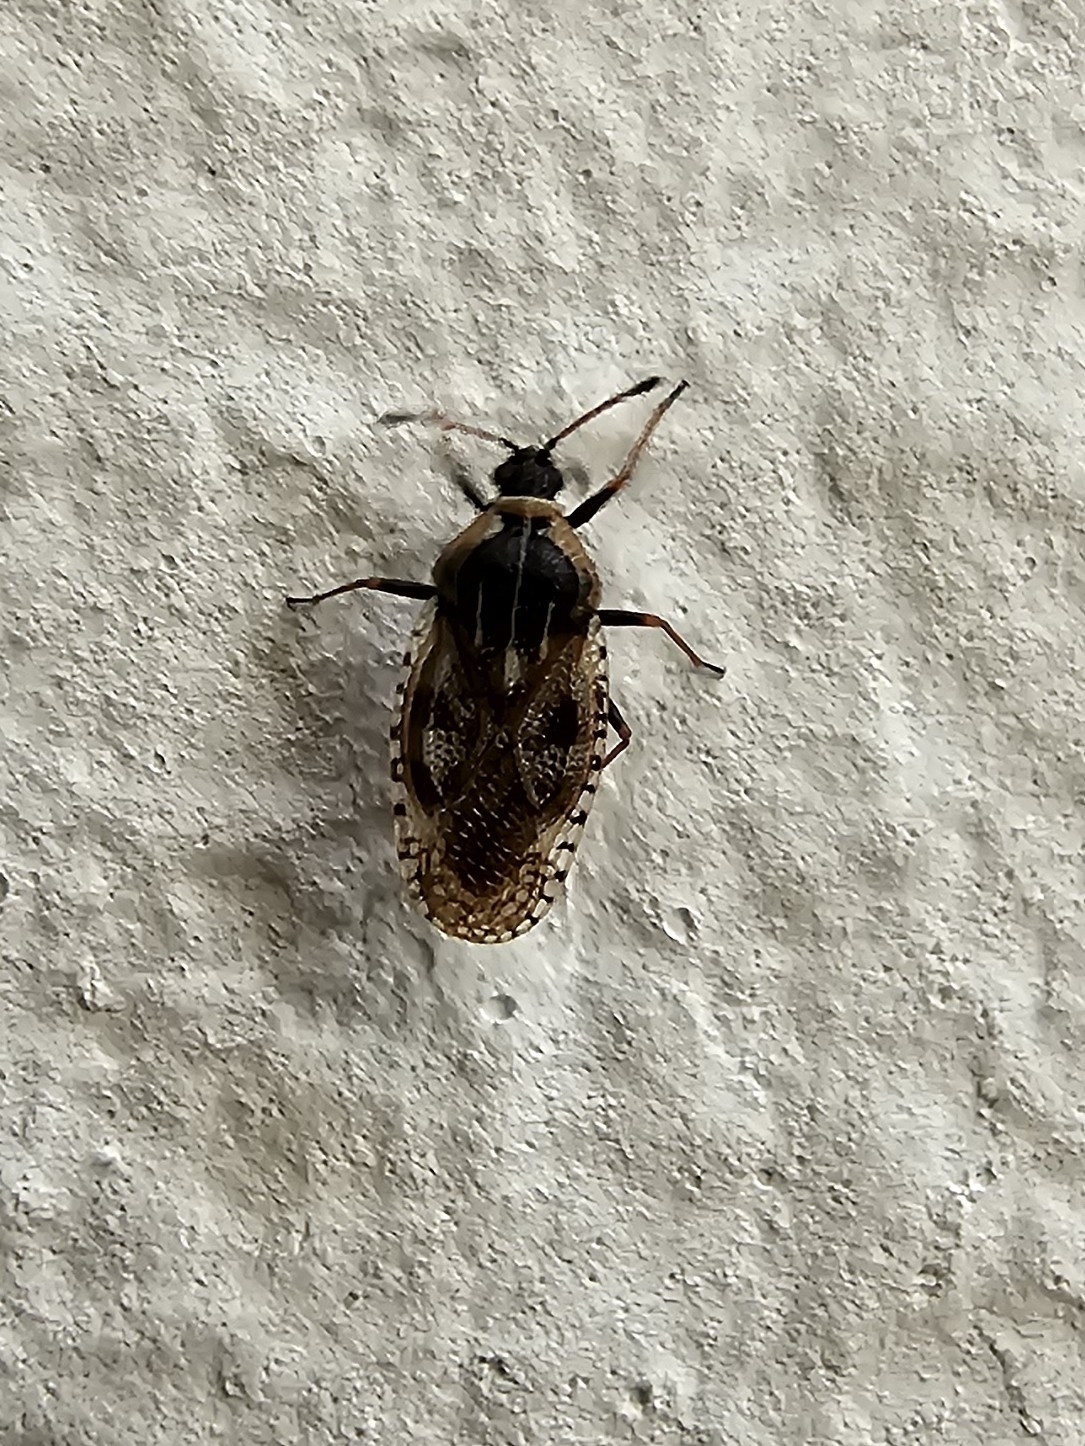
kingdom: Animalia
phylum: Arthropoda
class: Insecta
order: Hemiptera
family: Tingidae
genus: Dictyla
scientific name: Dictyla echii
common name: Lace bug
